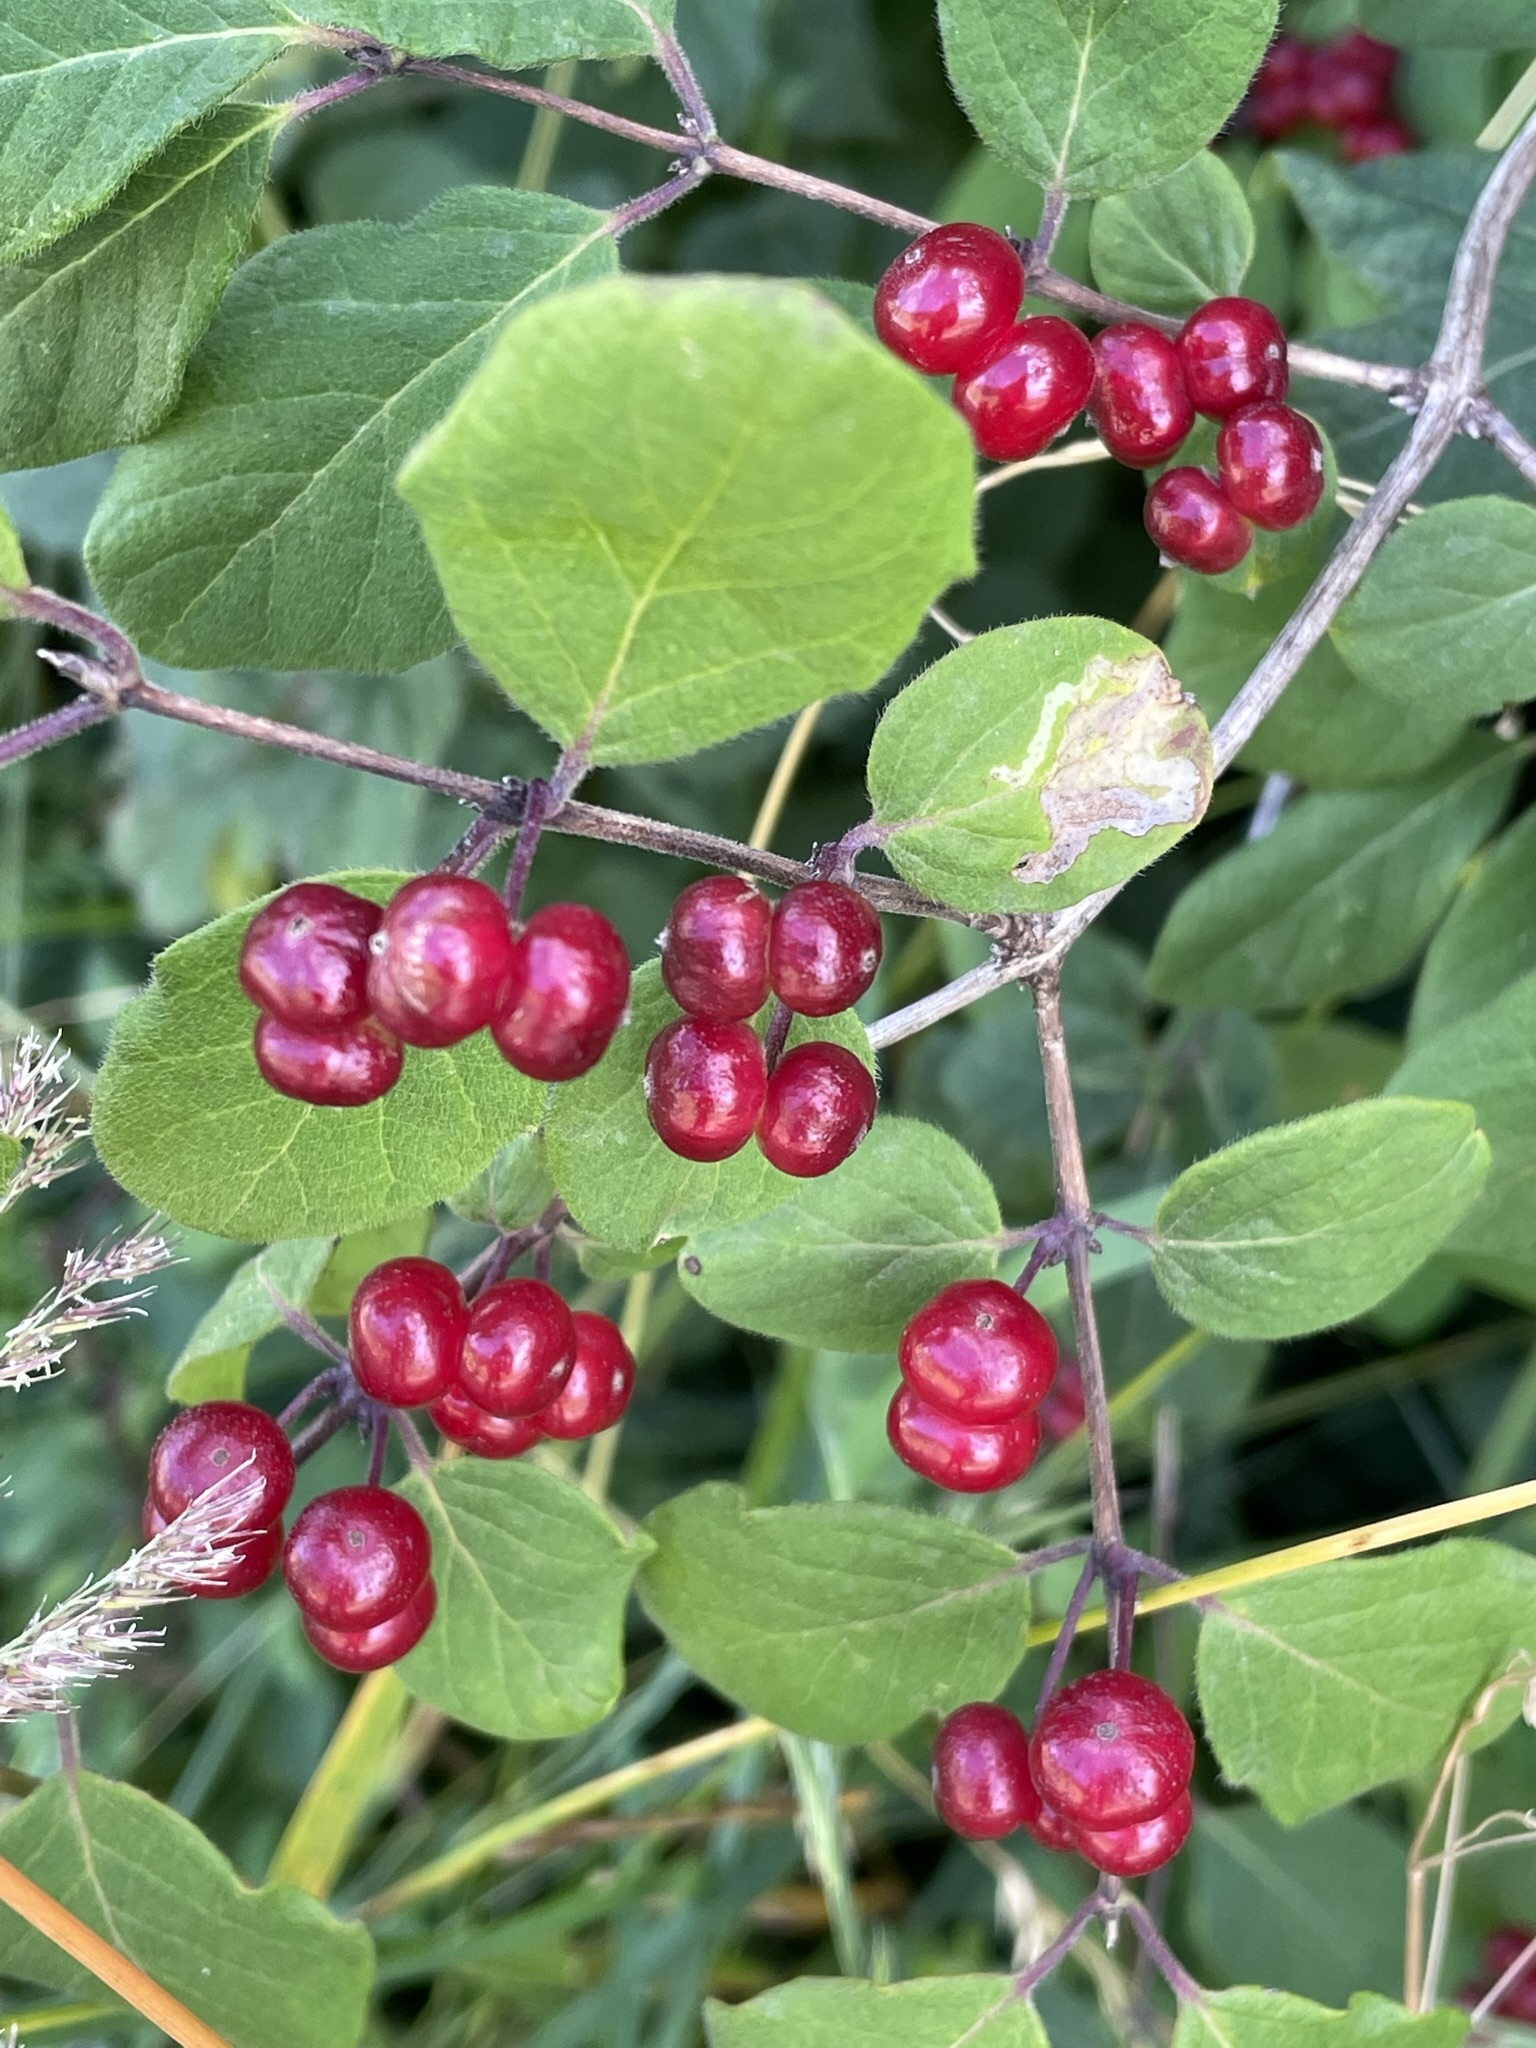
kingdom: Plantae
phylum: Tracheophyta
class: Magnoliopsida
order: Dipsacales
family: Caprifoliaceae
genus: Lonicera
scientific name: Lonicera xylosteum
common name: Fly honeysuckle
